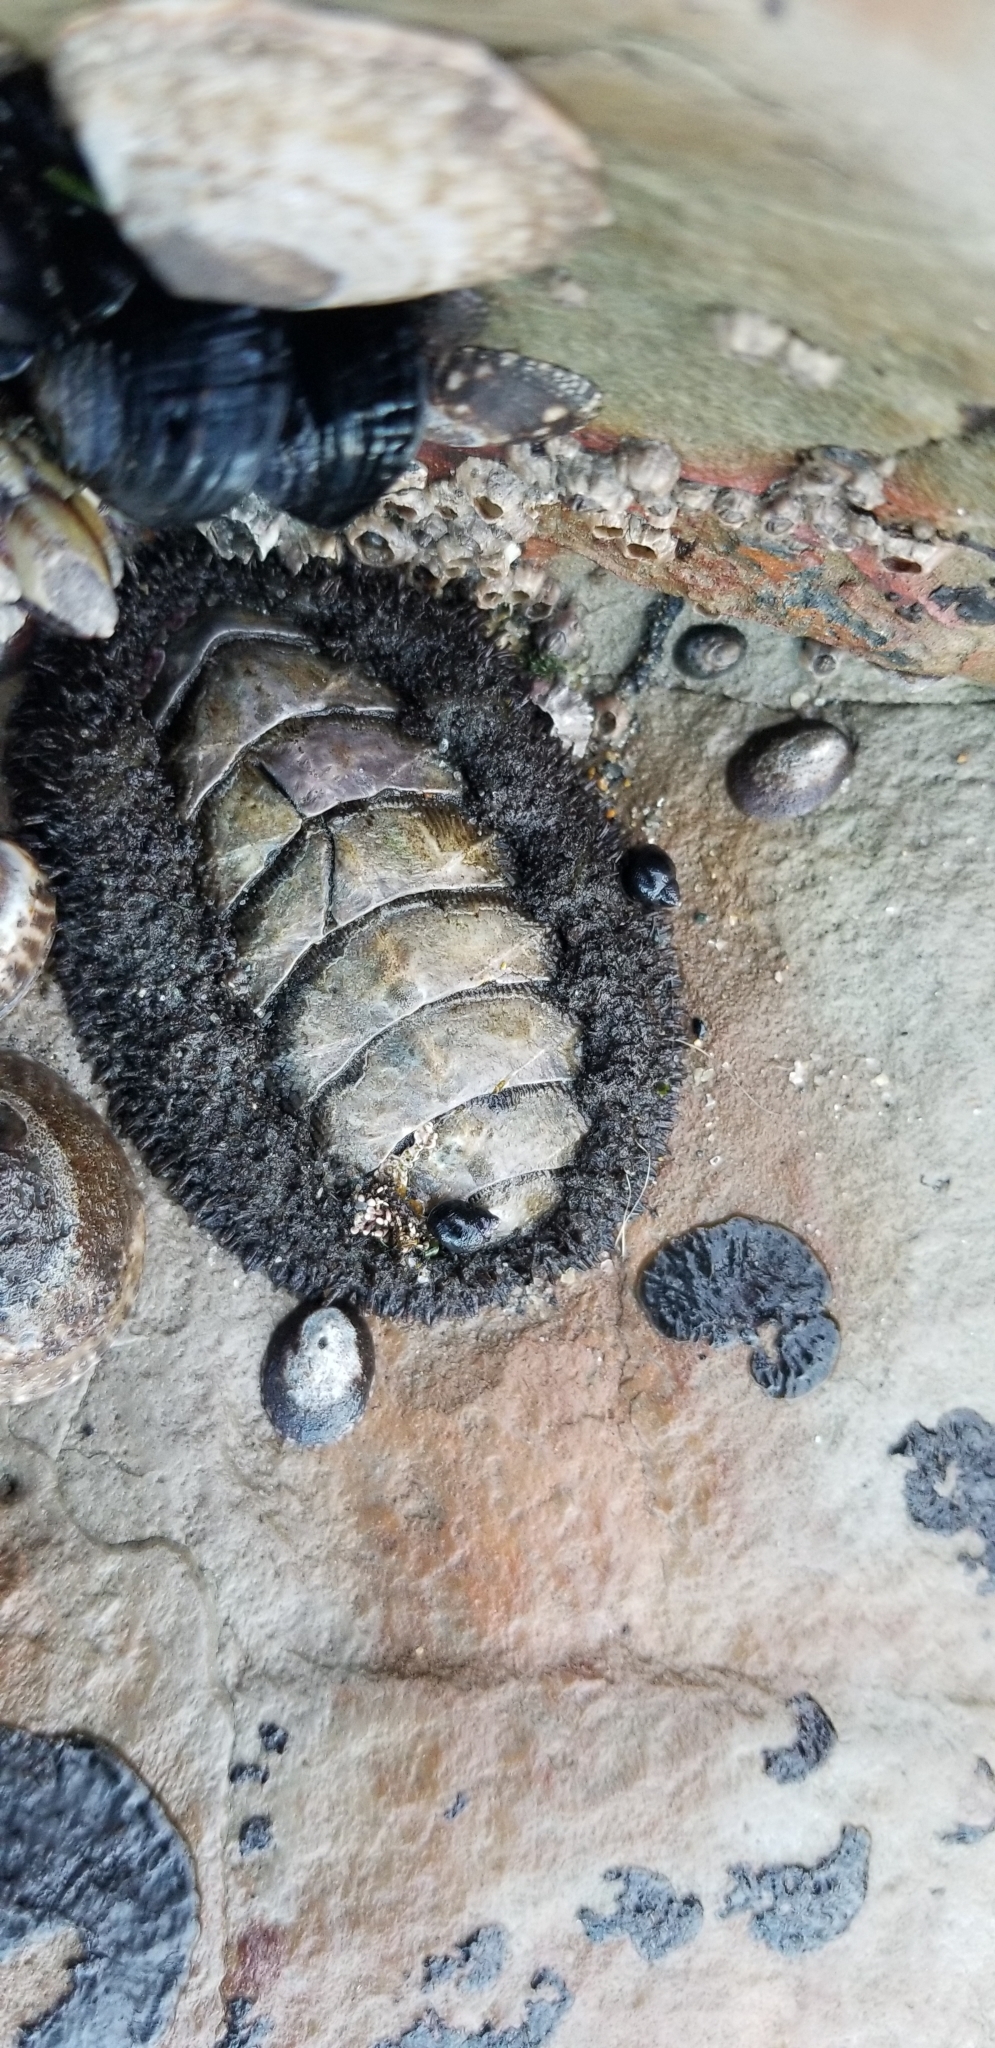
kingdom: Animalia
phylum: Mollusca
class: Polyplacophora
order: Chitonida
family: Mopaliidae
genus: Mopalia
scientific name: Mopalia muscosa
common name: Mossy chiton
